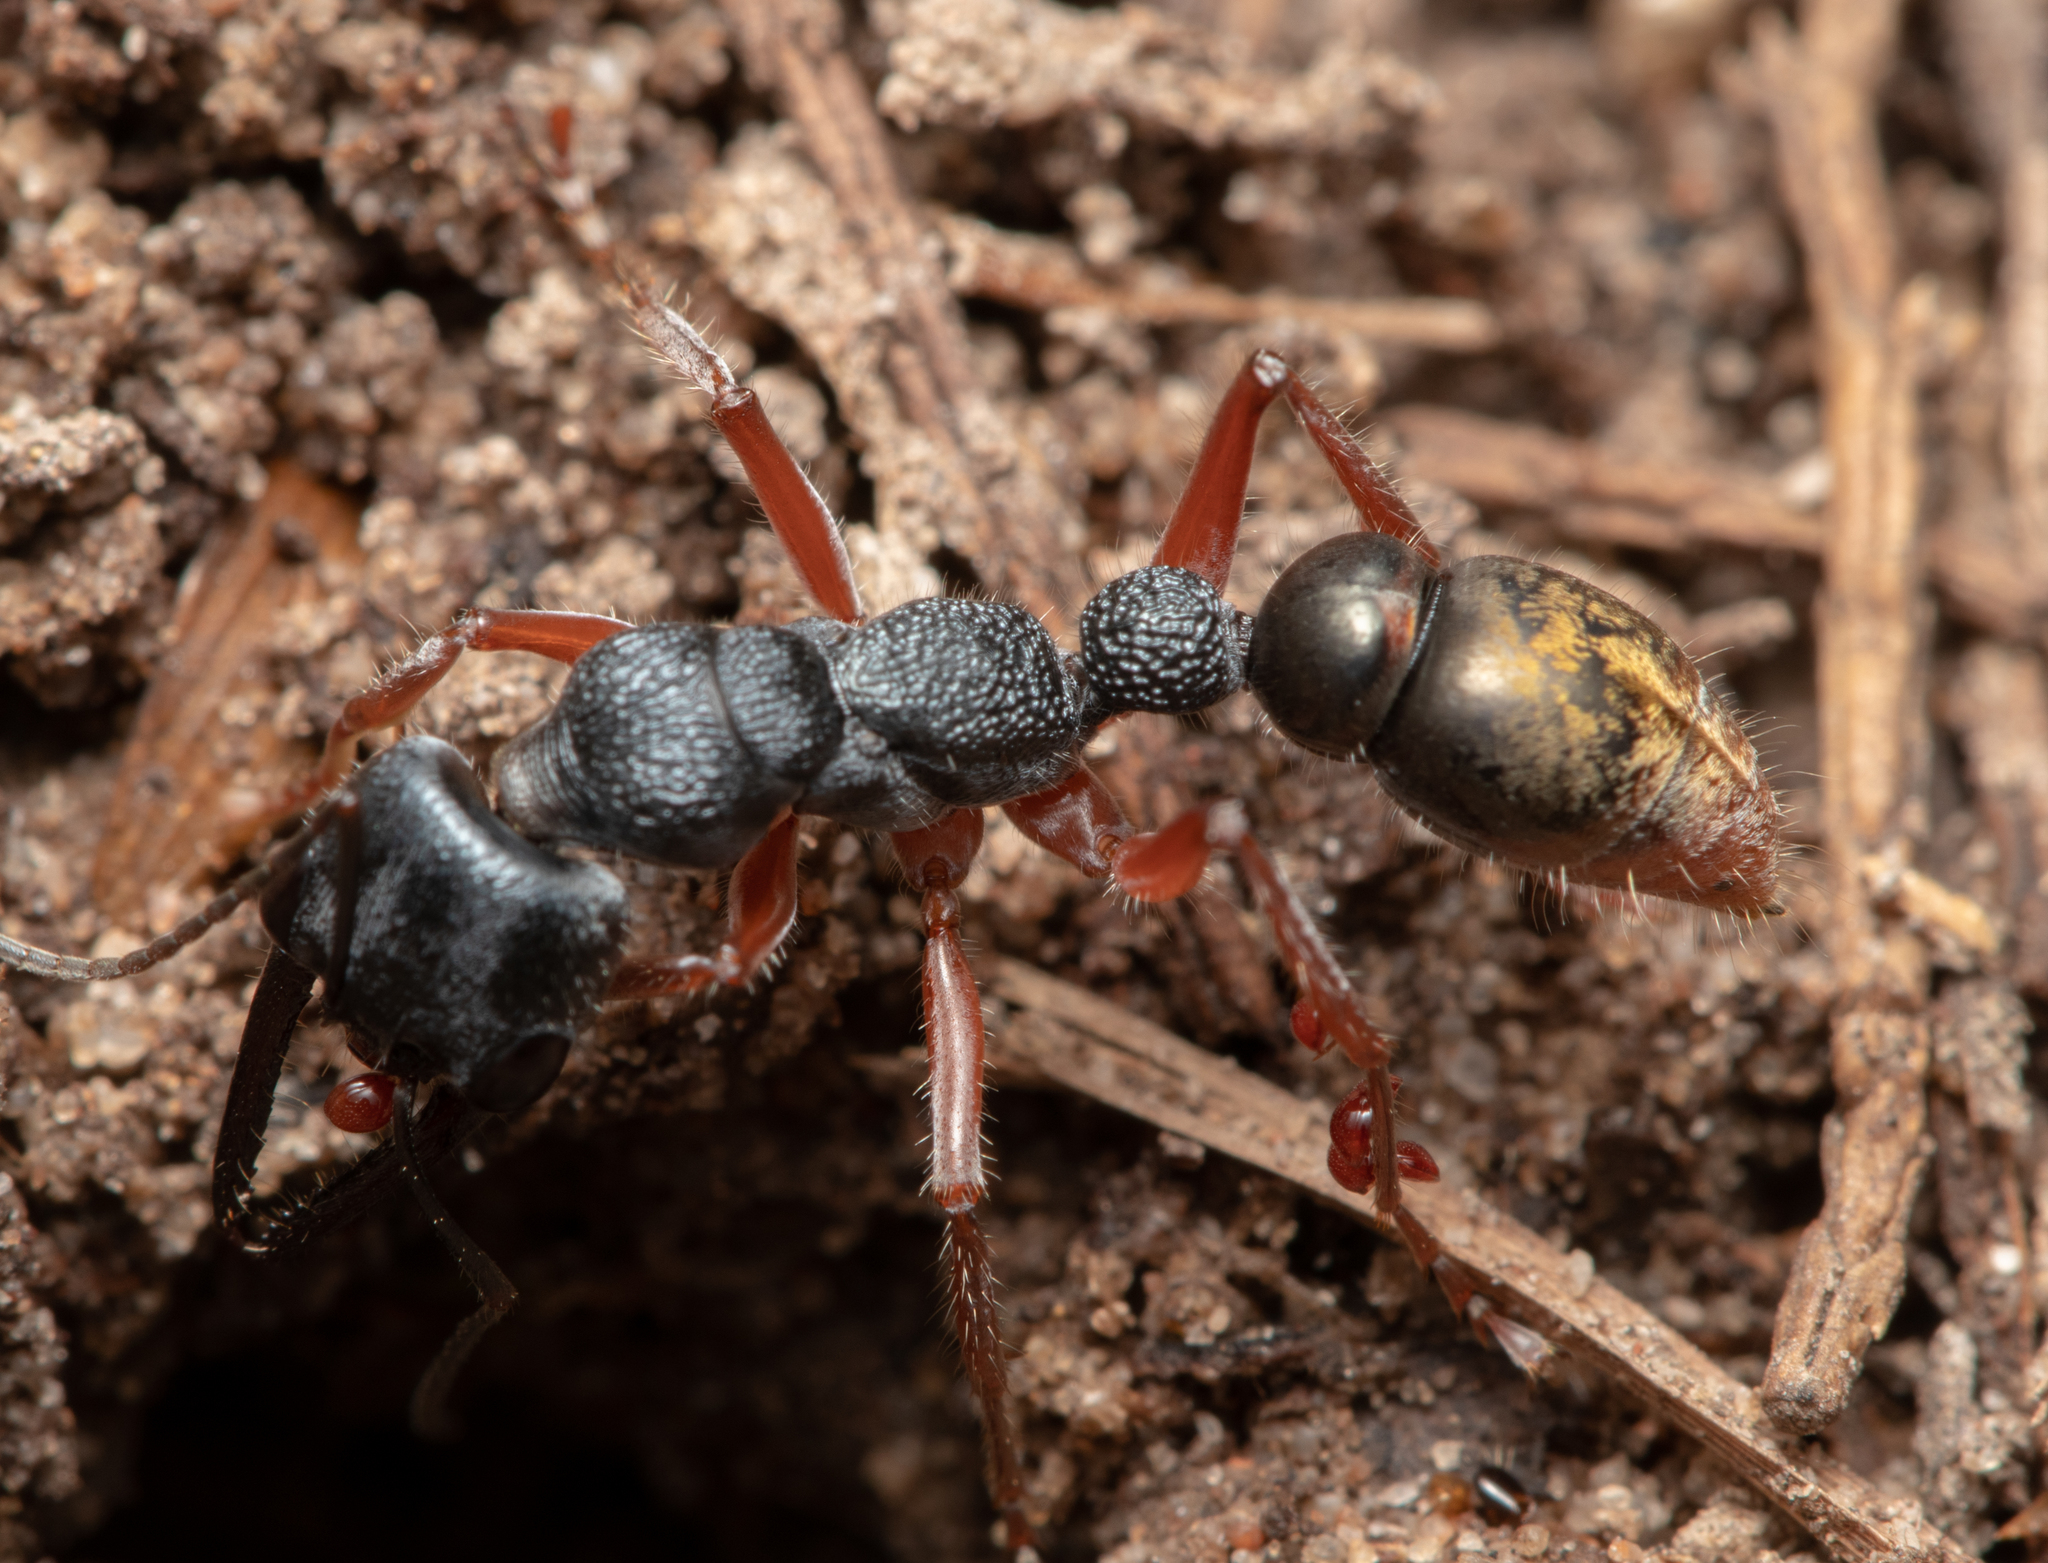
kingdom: Animalia
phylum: Arthropoda
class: Insecta
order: Hymenoptera
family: Formicidae
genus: Myrmecia
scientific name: Myrmecia fulviculis
